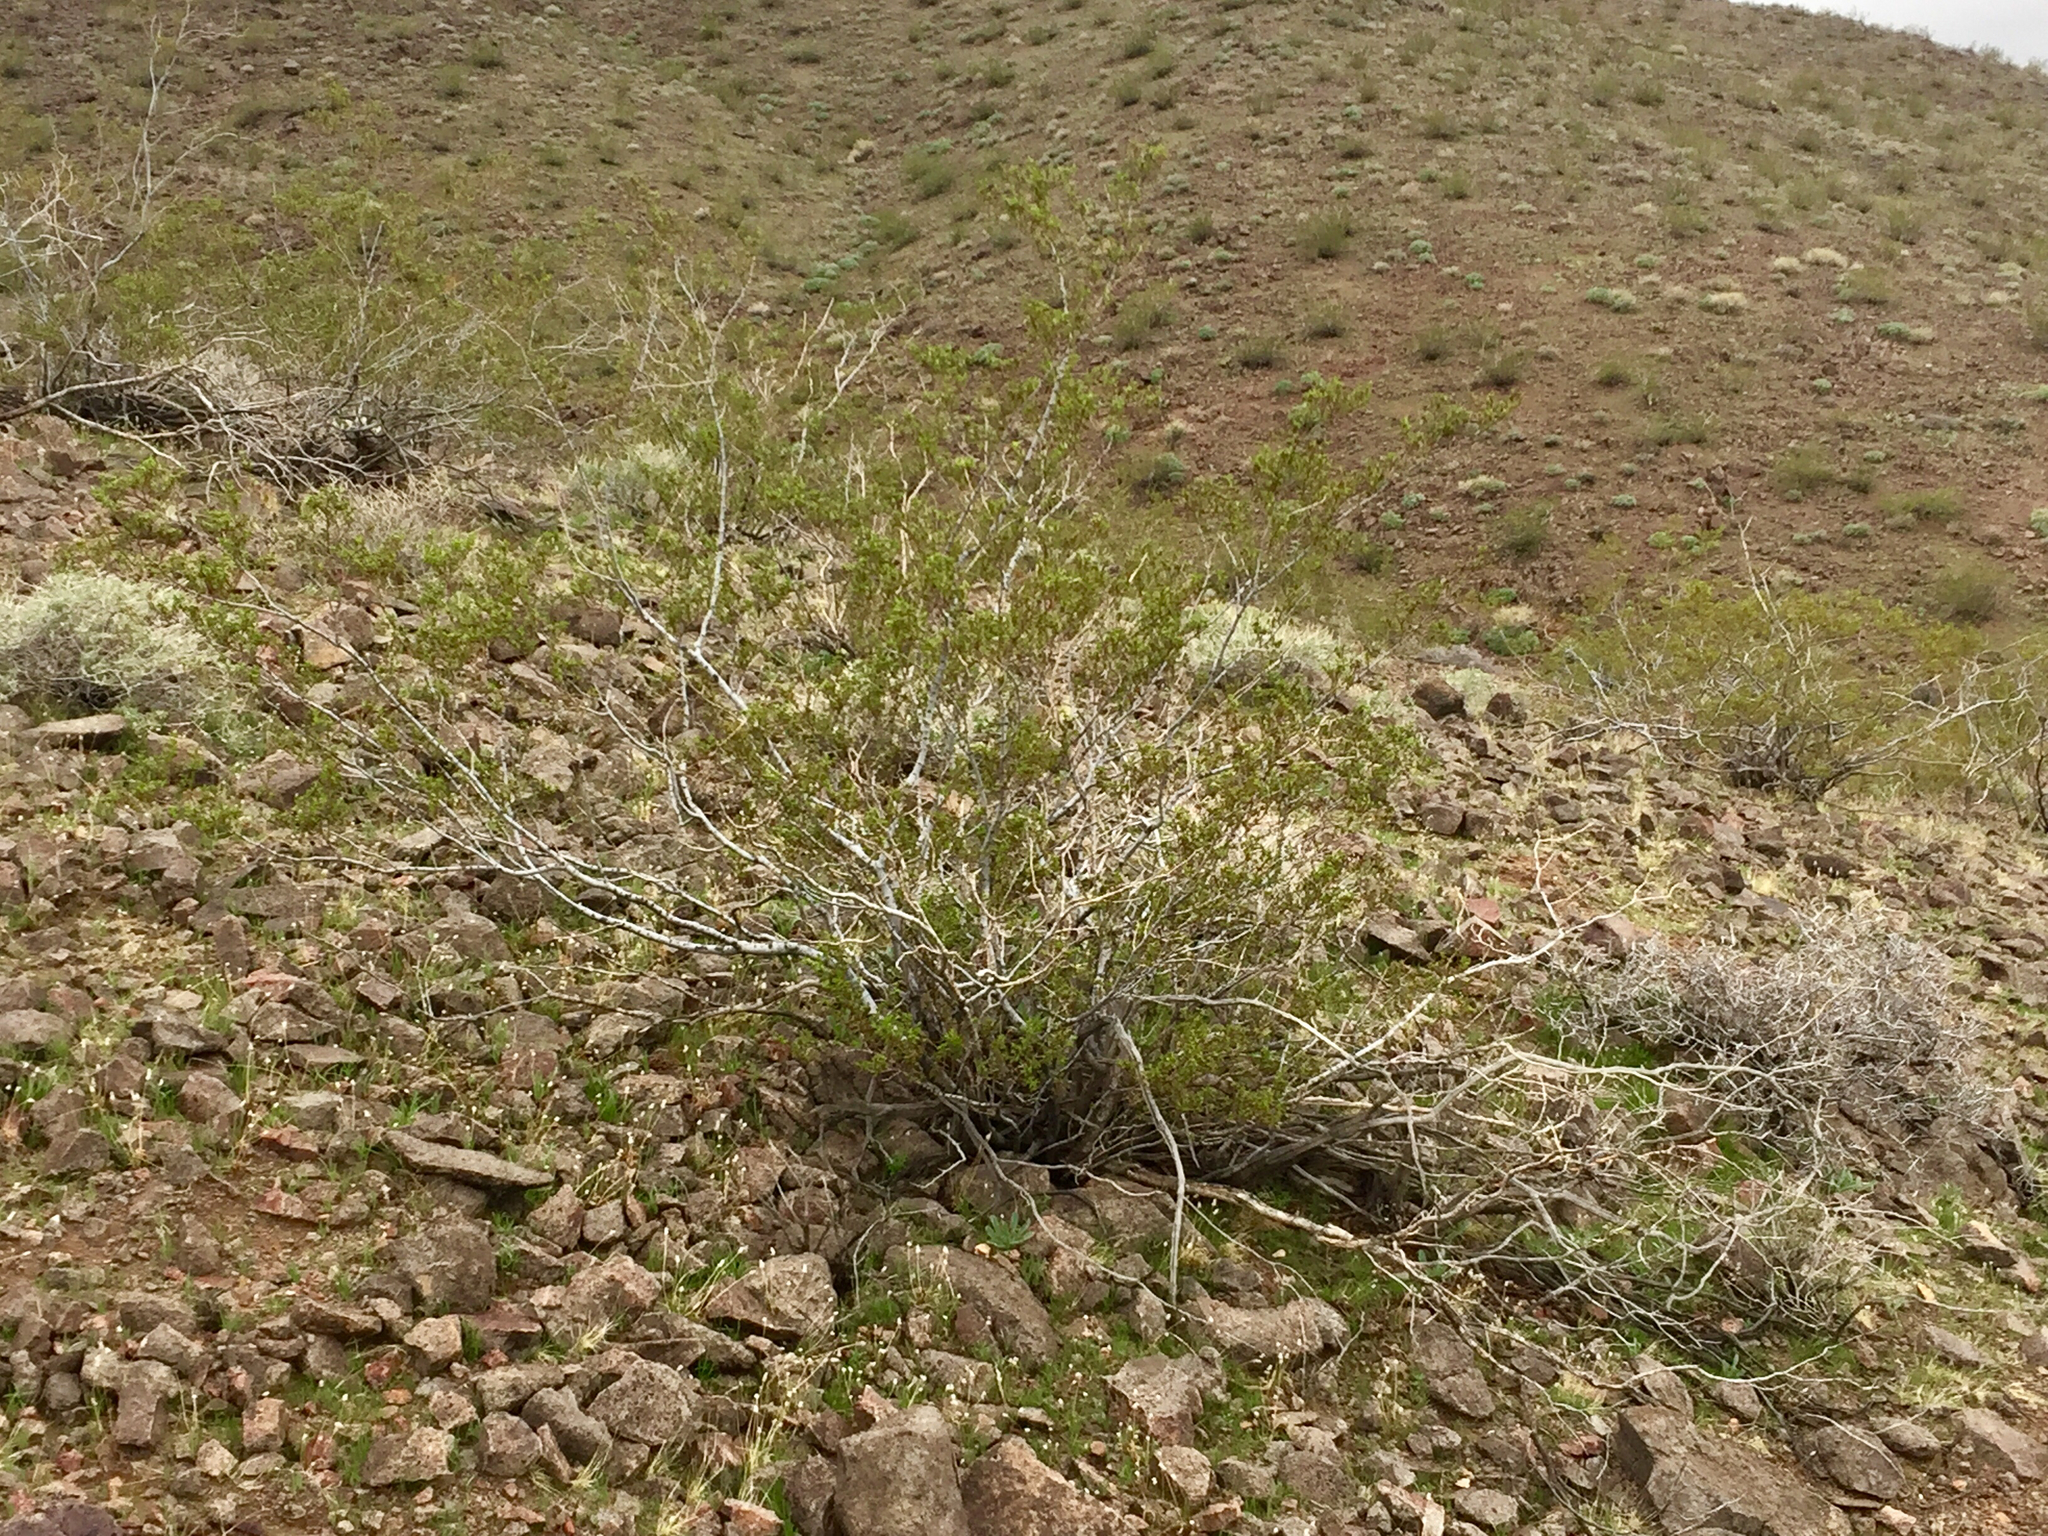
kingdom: Plantae
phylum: Tracheophyta
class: Magnoliopsida
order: Zygophyllales
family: Zygophyllaceae
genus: Larrea
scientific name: Larrea tridentata
